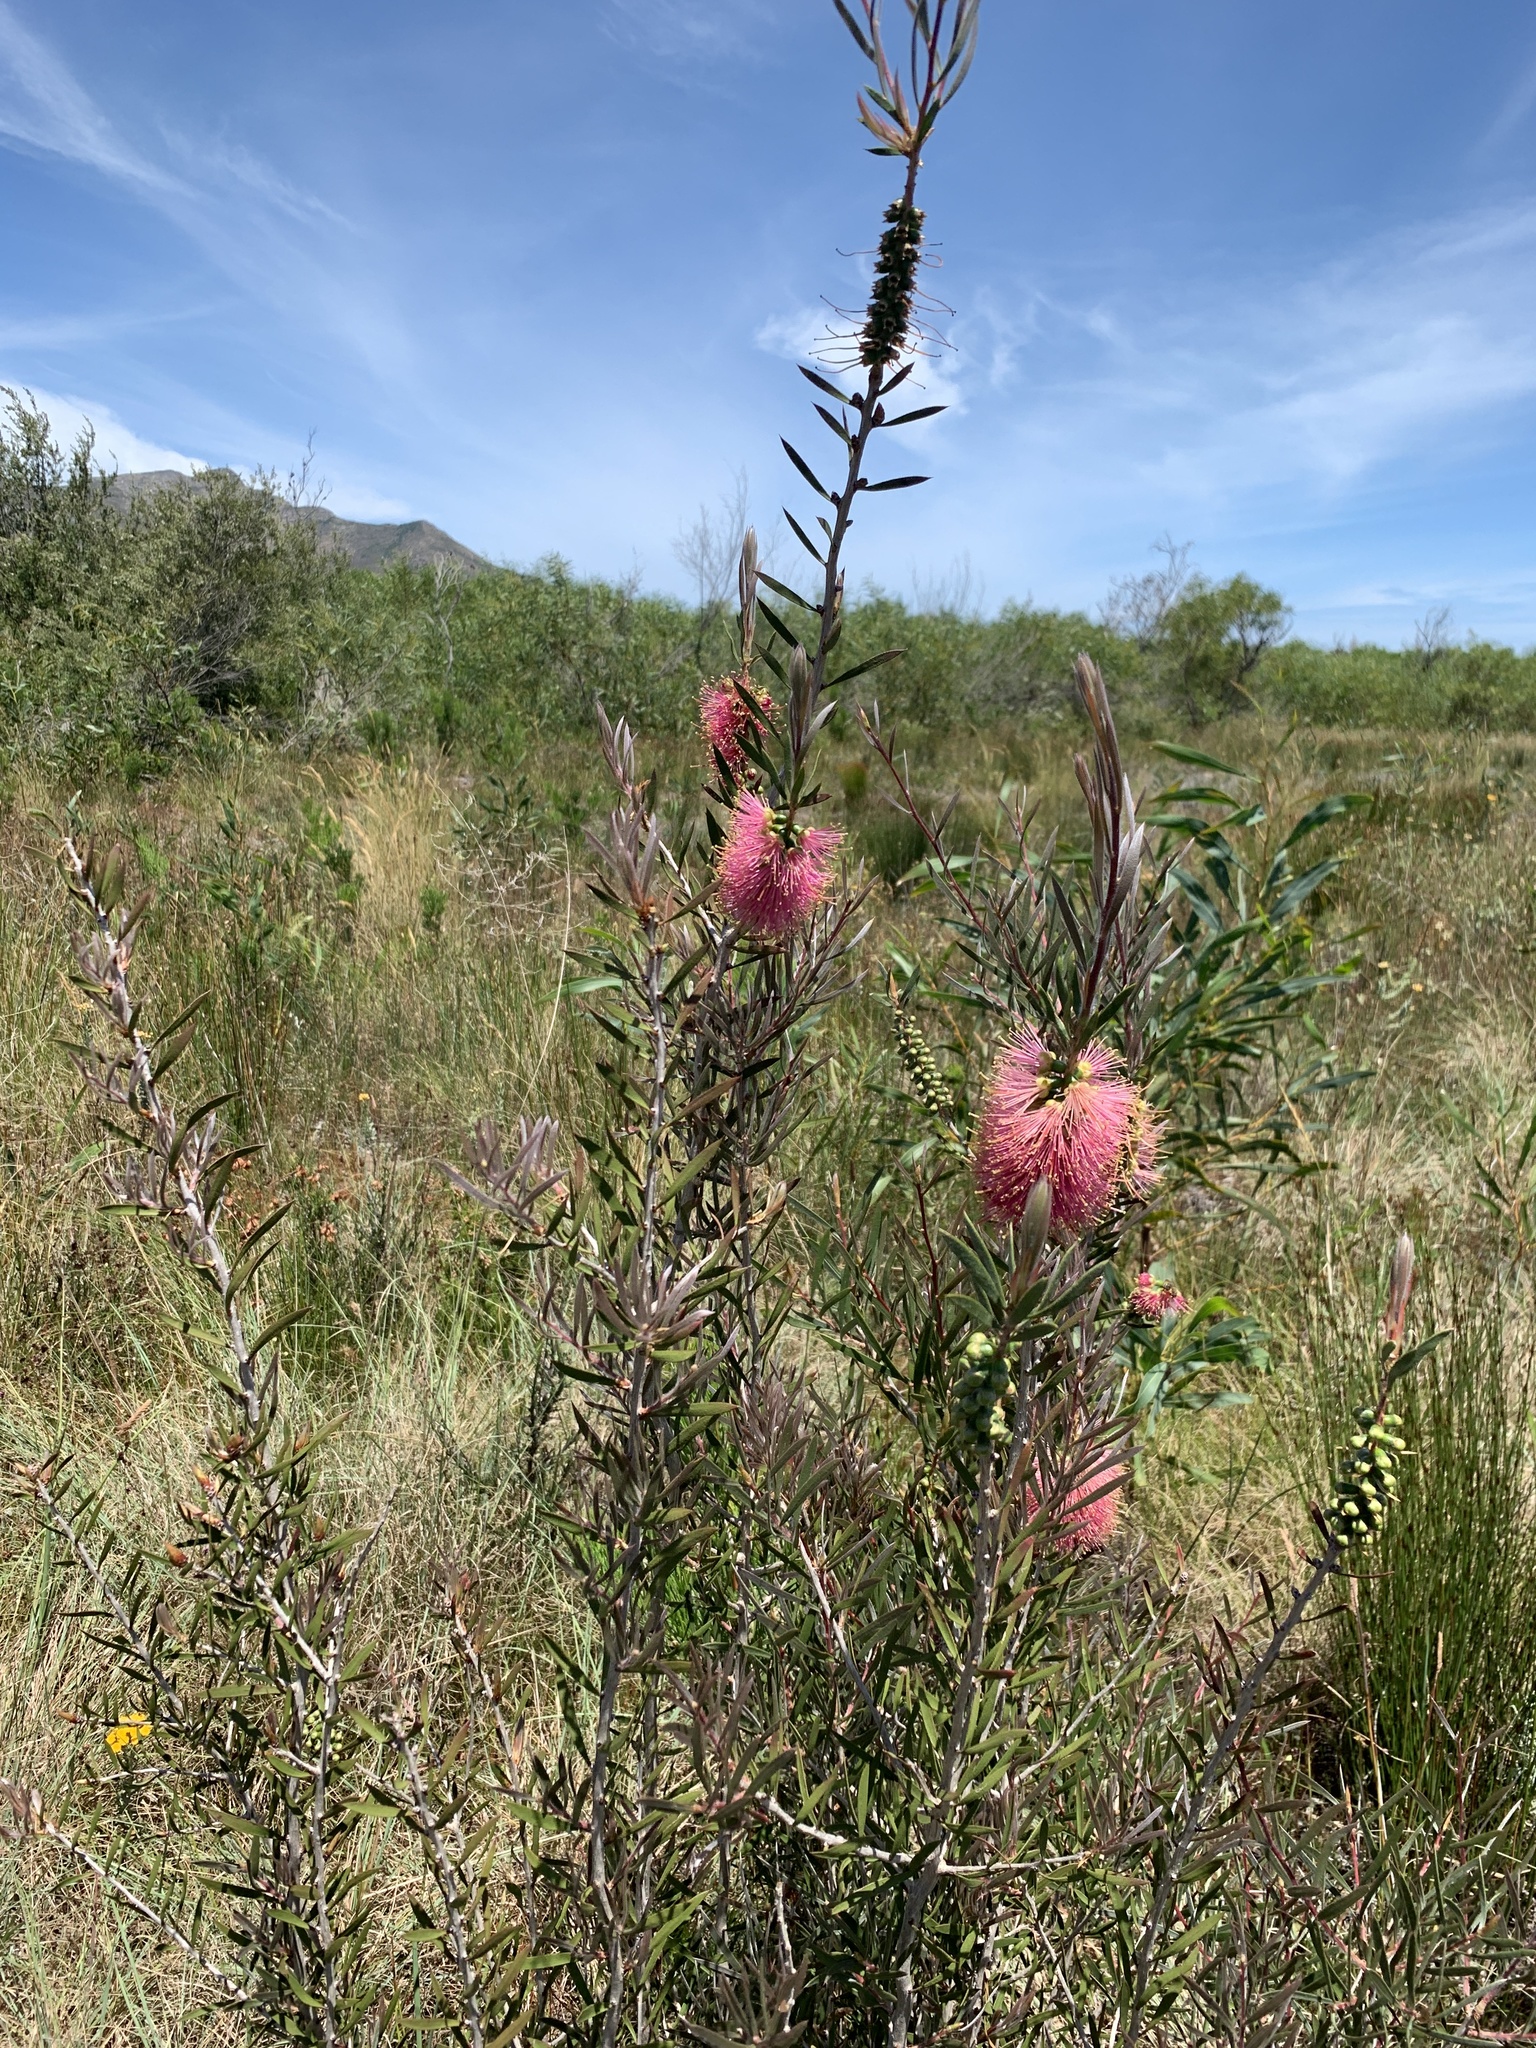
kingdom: Plantae
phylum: Tracheophyta
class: Magnoliopsida
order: Myrtales
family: Myrtaceae
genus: Callistemon
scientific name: Callistemon rugulosus
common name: Scarlet bottlebrush
